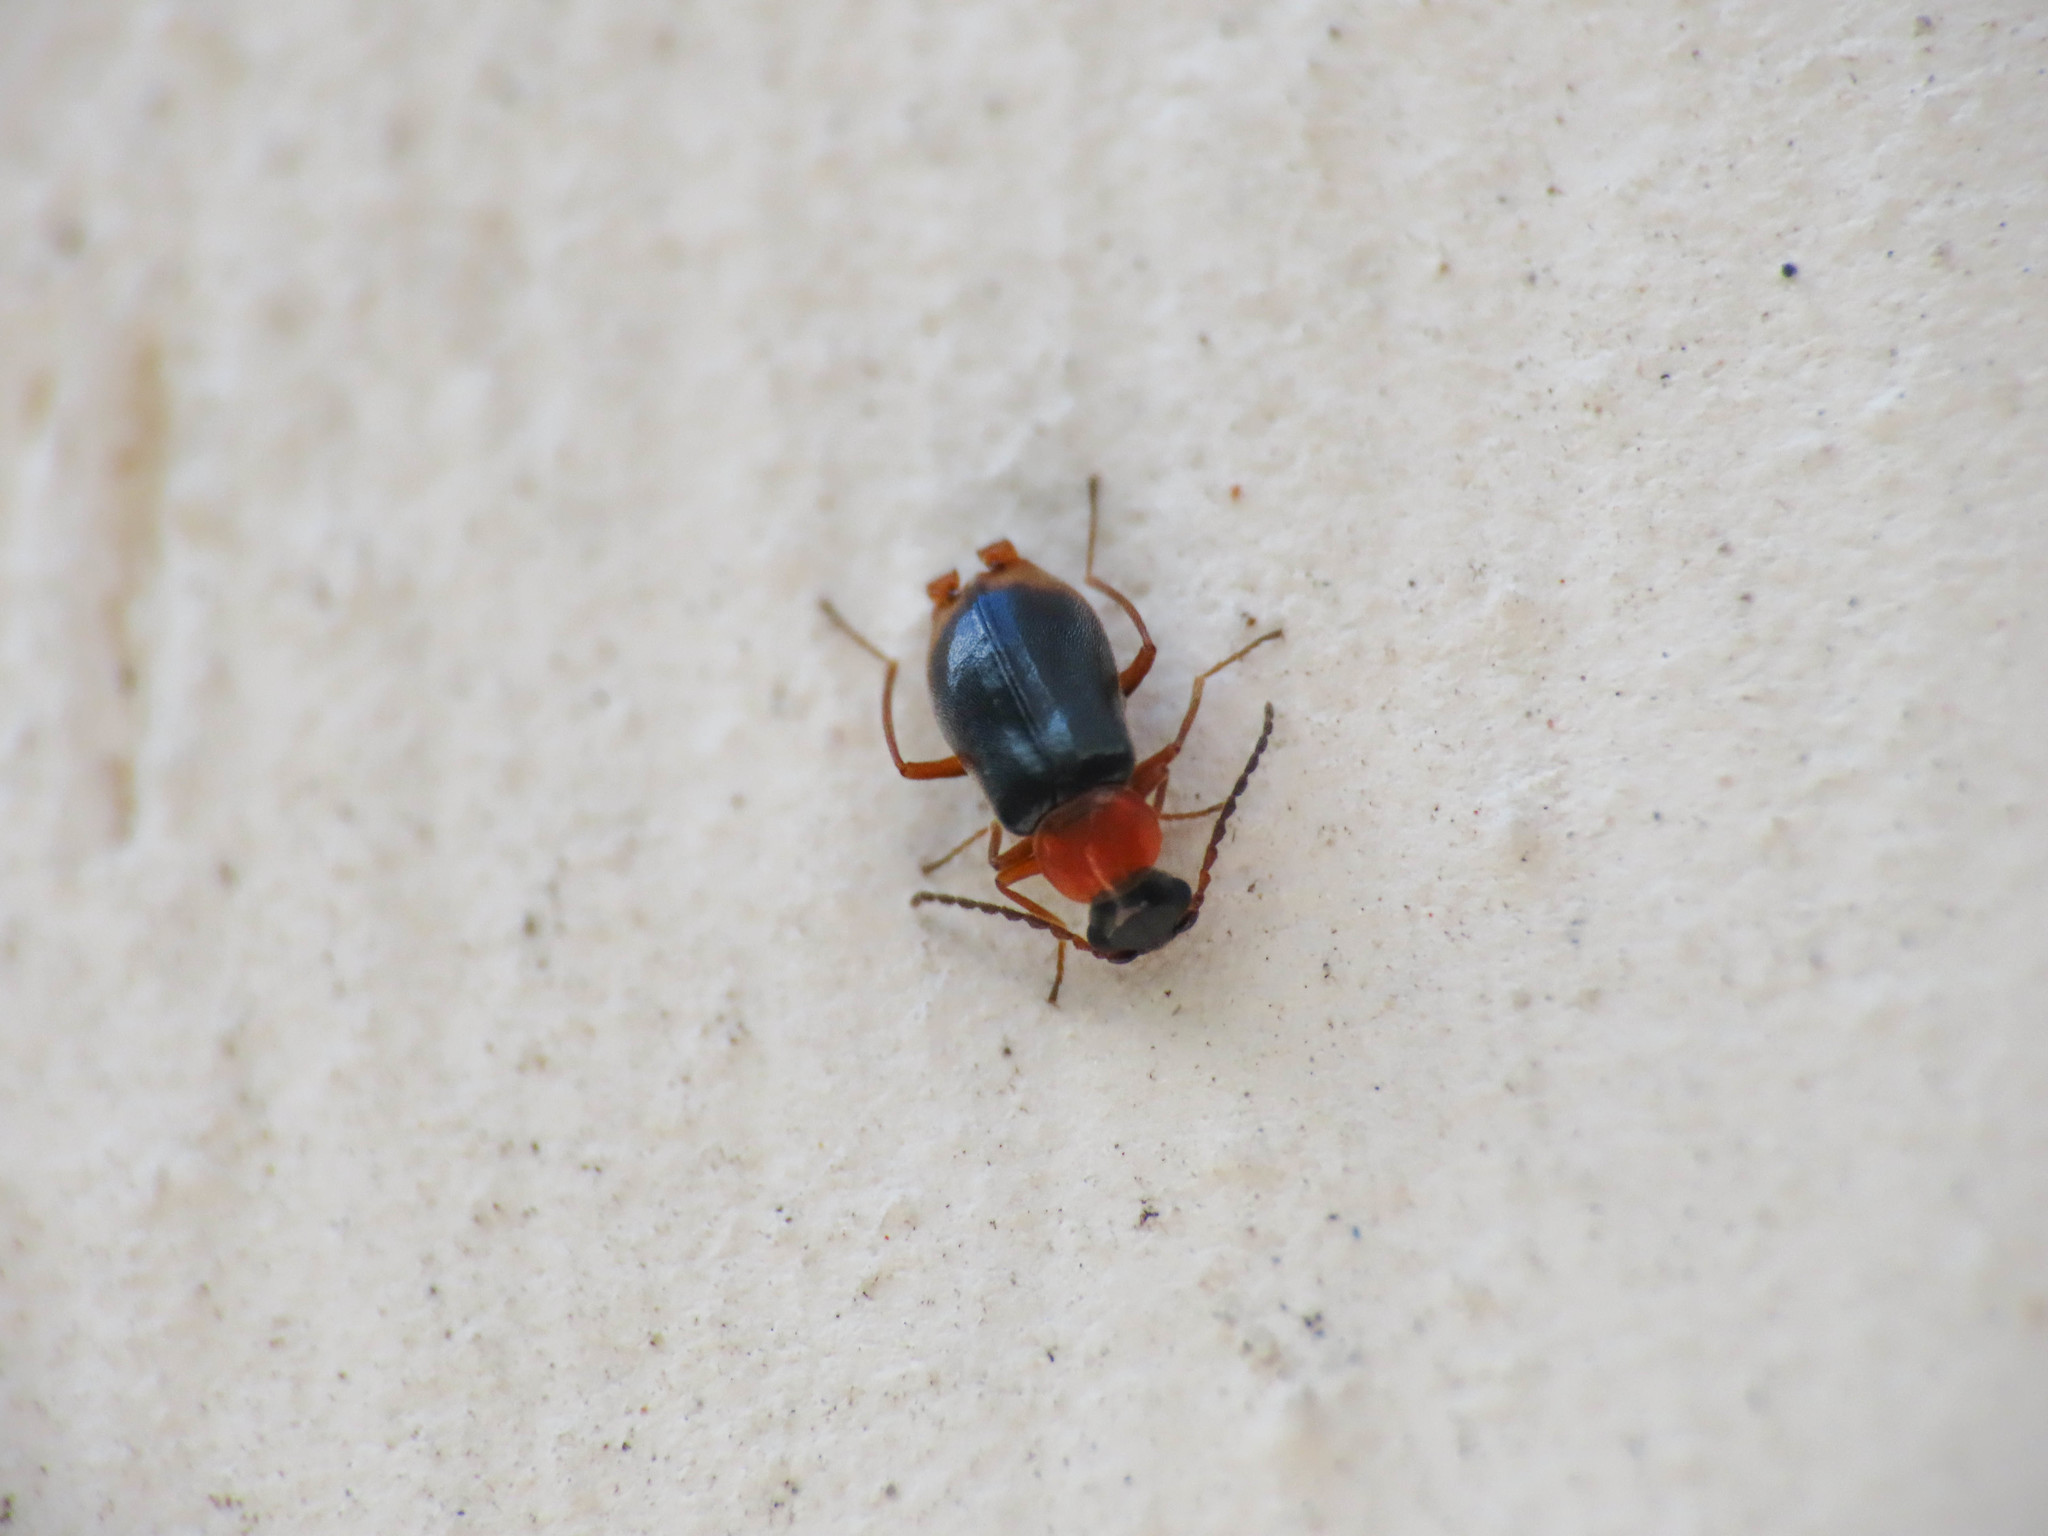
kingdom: Animalia
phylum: Arthropoda
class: Insecta
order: Coleoptera
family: Melyridae
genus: Hypebaeus
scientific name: Hypebaeus flavicollis
